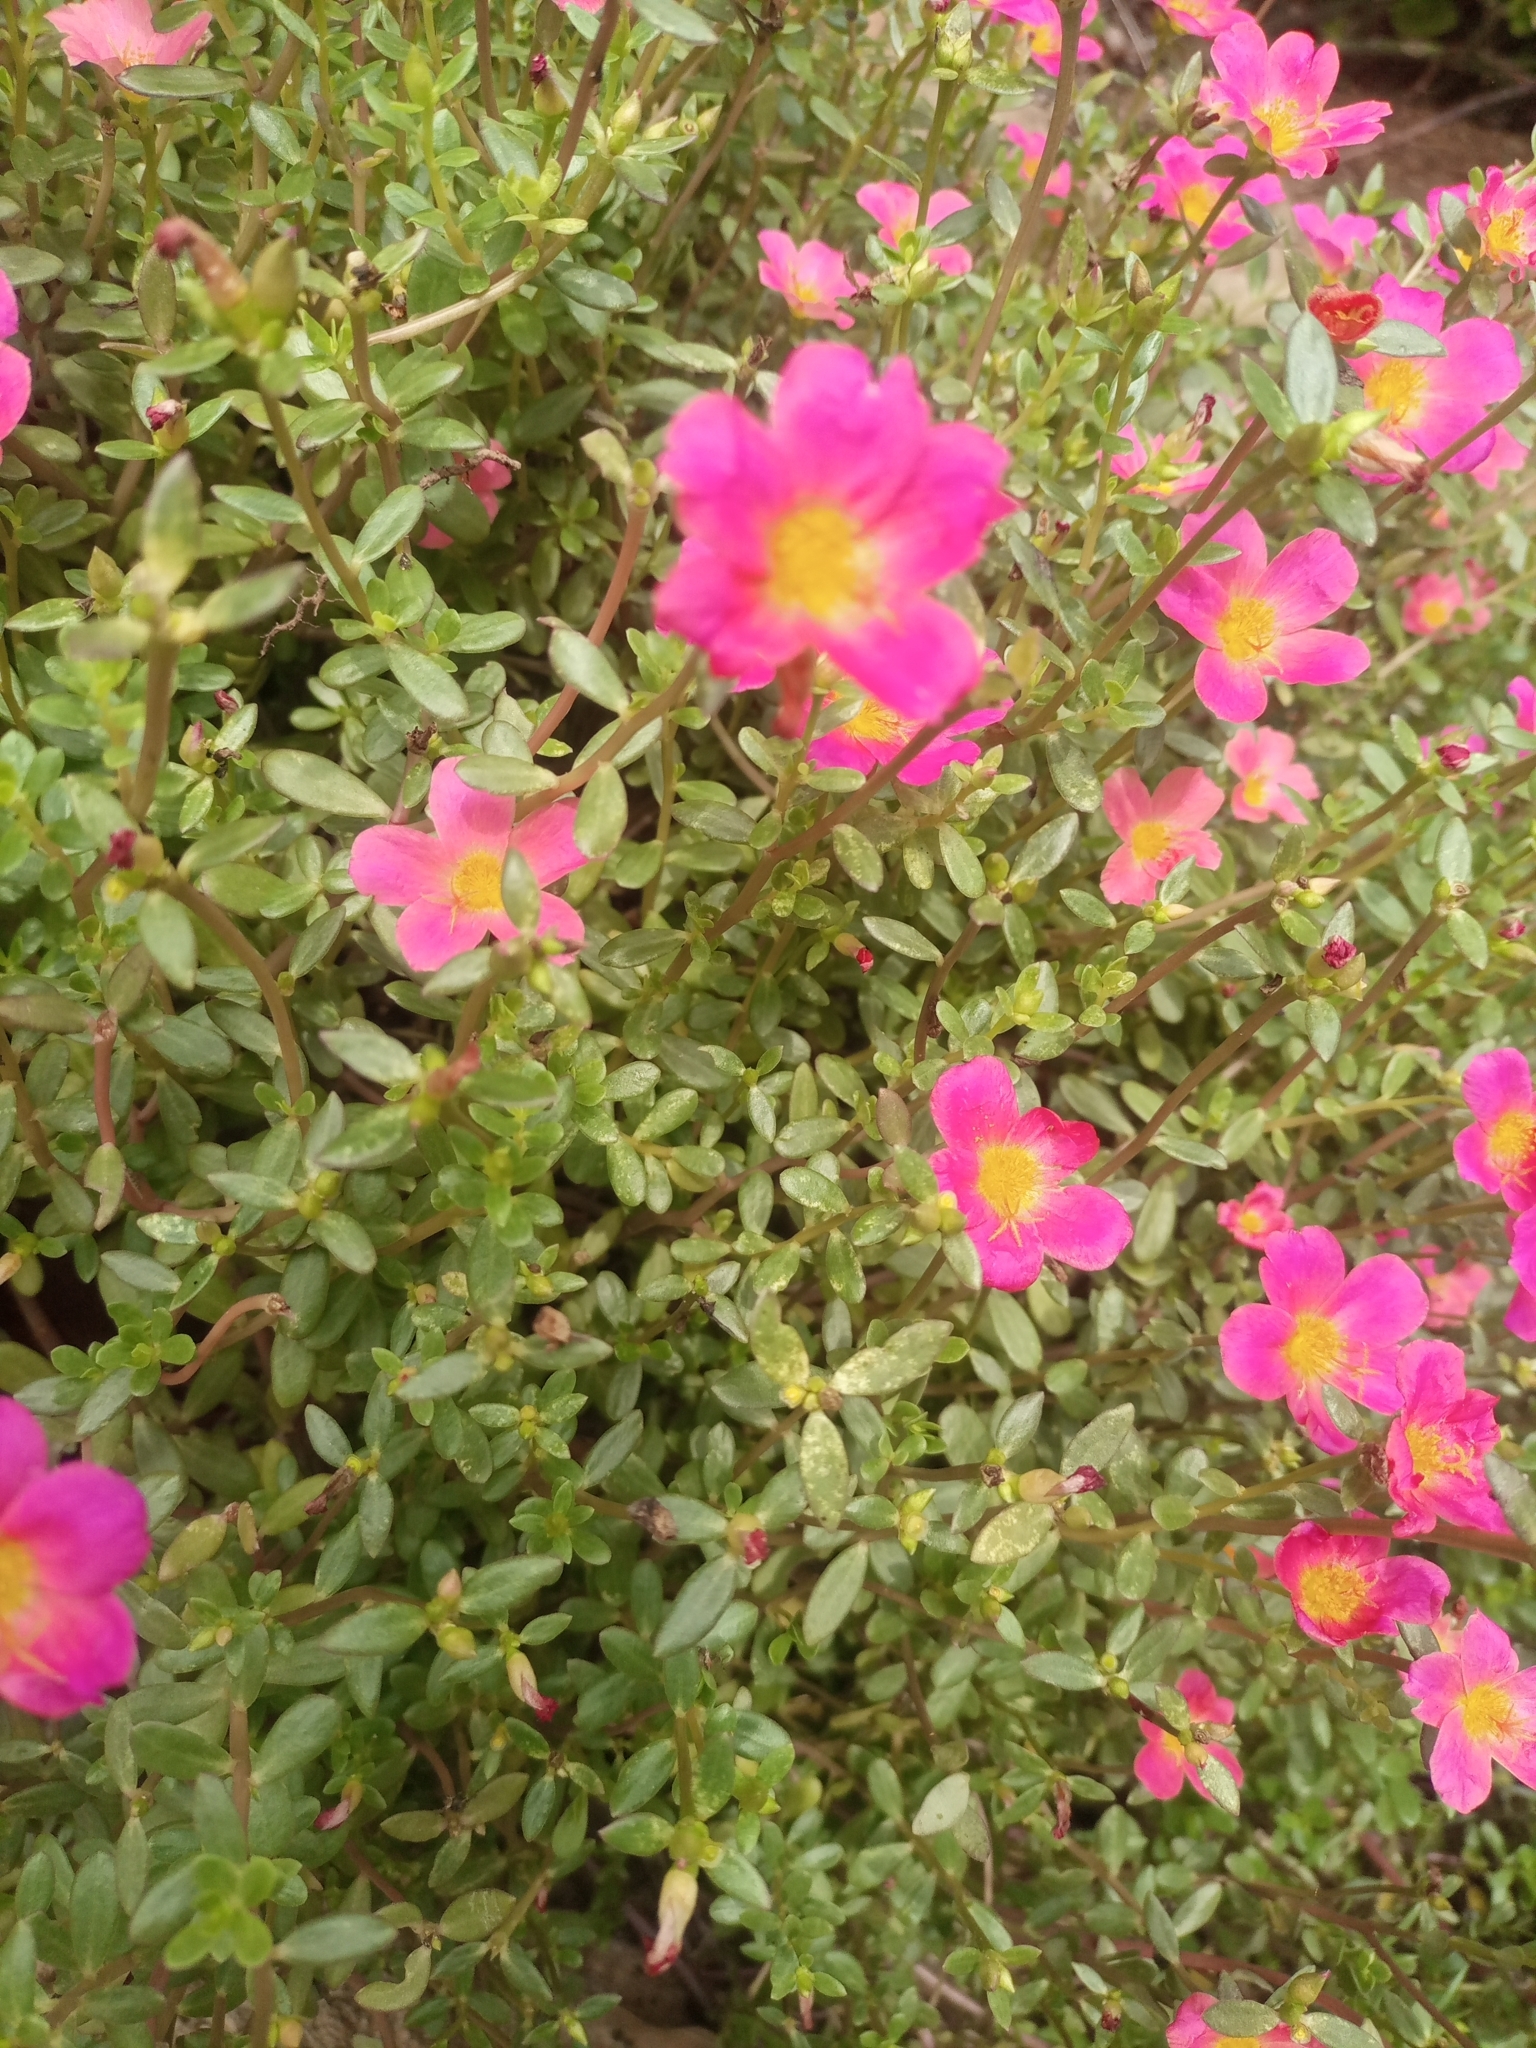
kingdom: Plantae
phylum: Tracheophyta
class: Magnoliopsida
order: Caryophyllales
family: Portulacaceae
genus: Portulaca
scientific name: Portulaca umbraticola
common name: Wingpod purslane
